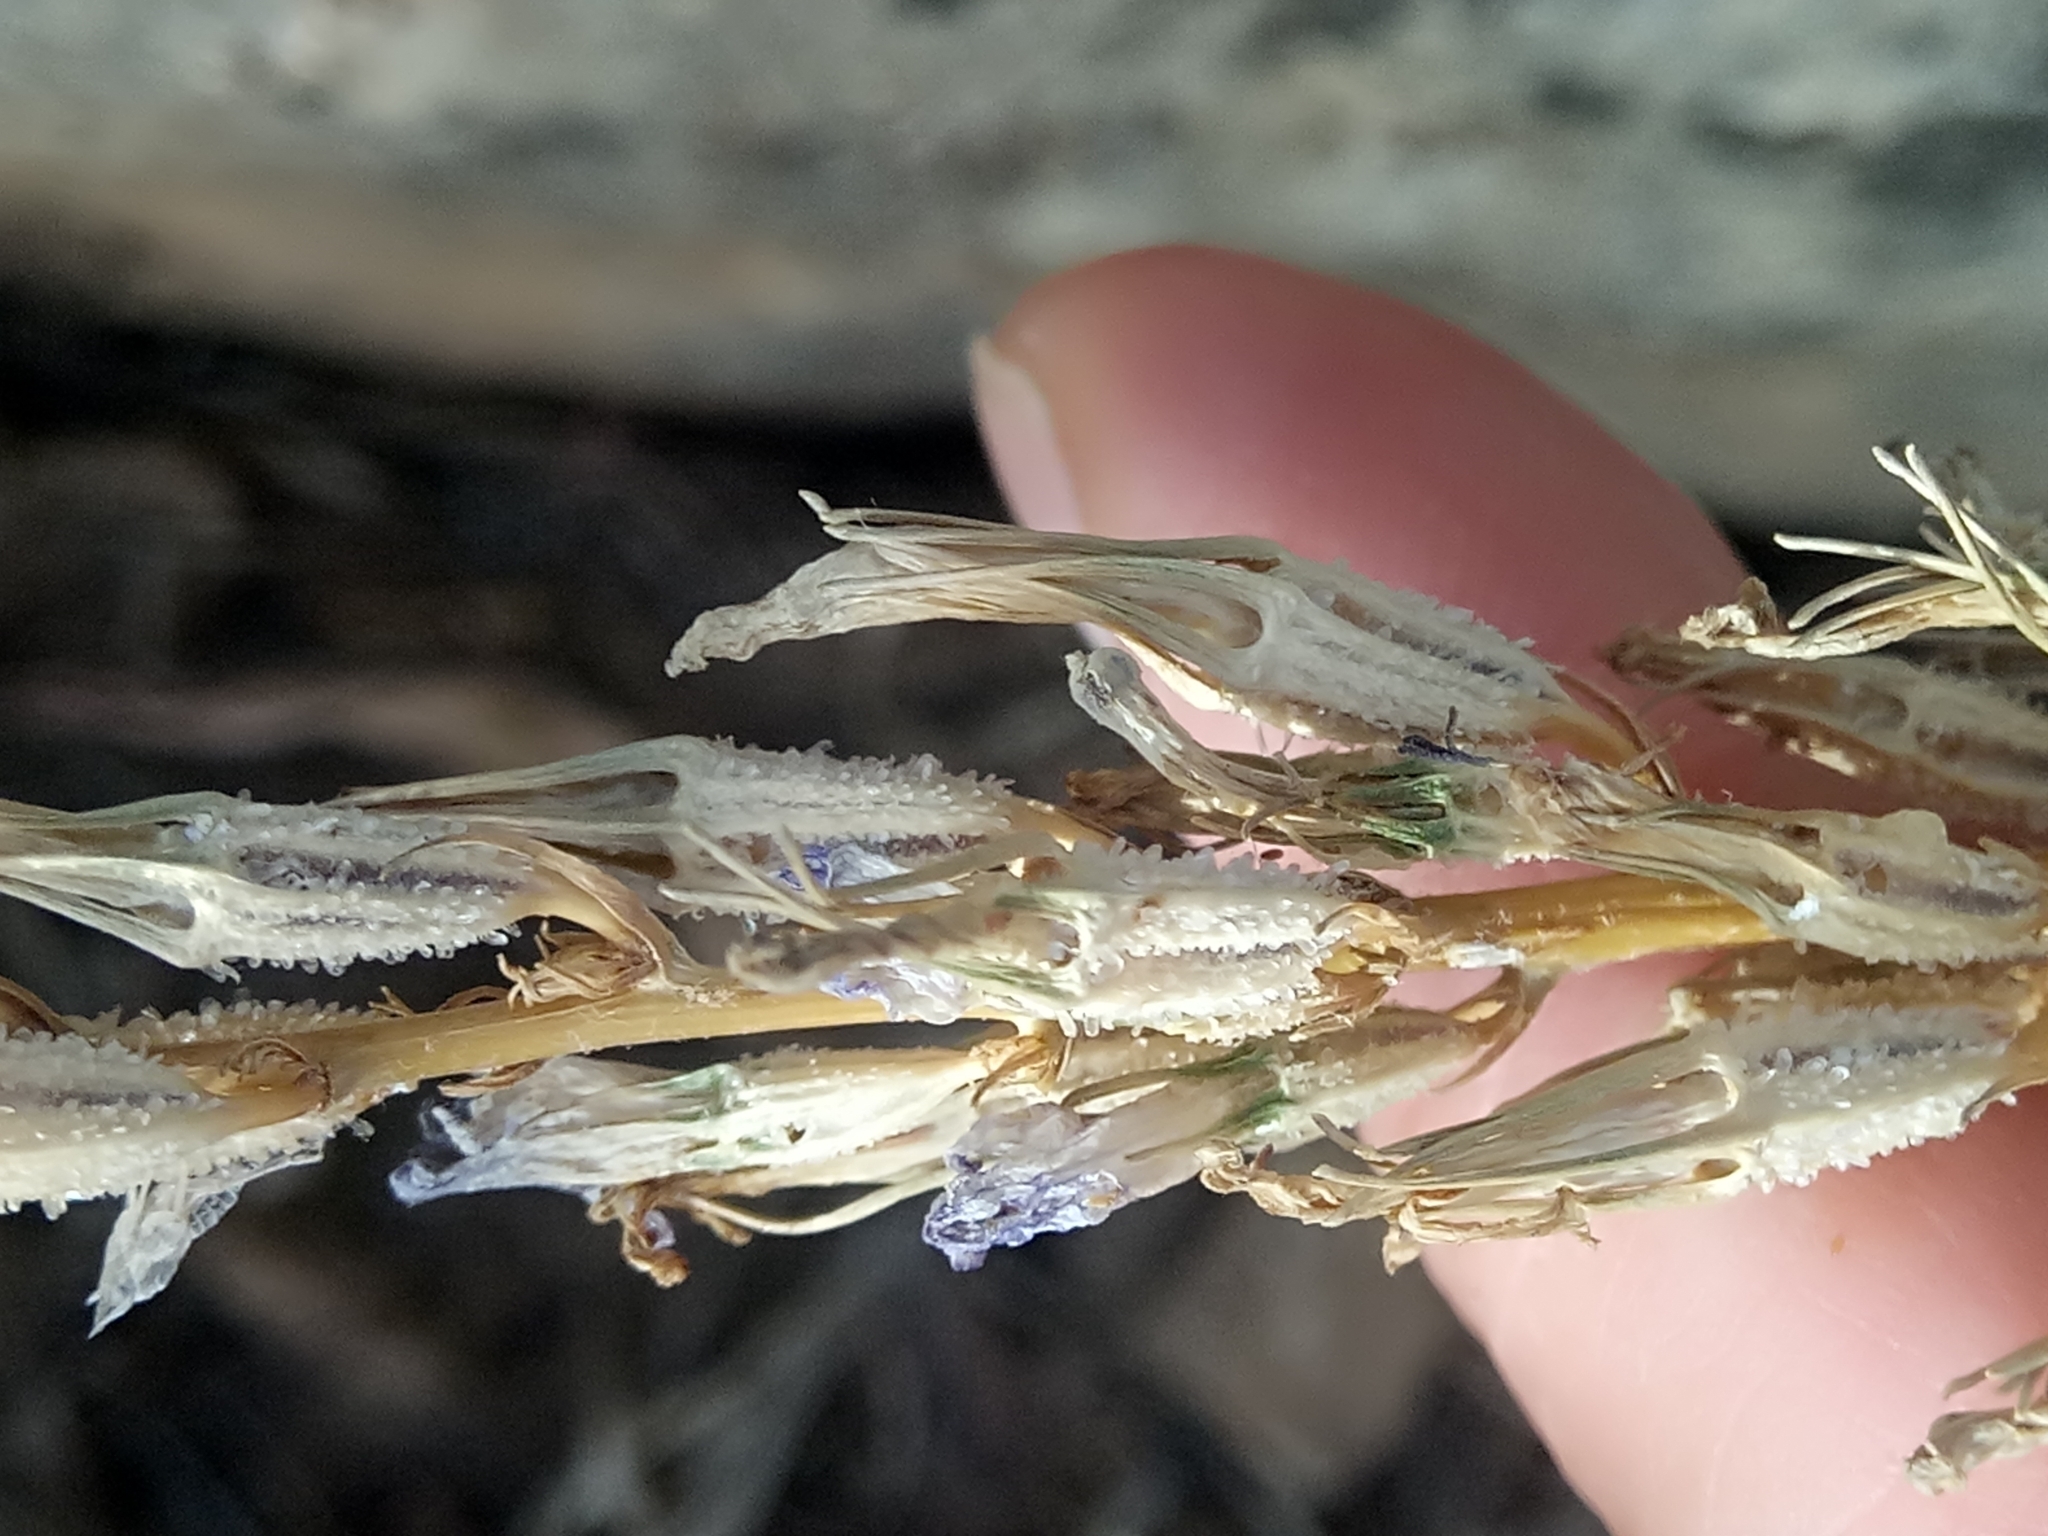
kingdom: Plantae
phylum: Tracheophyta
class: Magnoliopsida
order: Asterales
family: Campanulaceae
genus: Campanula
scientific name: Campanula rapunculus
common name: Rampion bellflower
